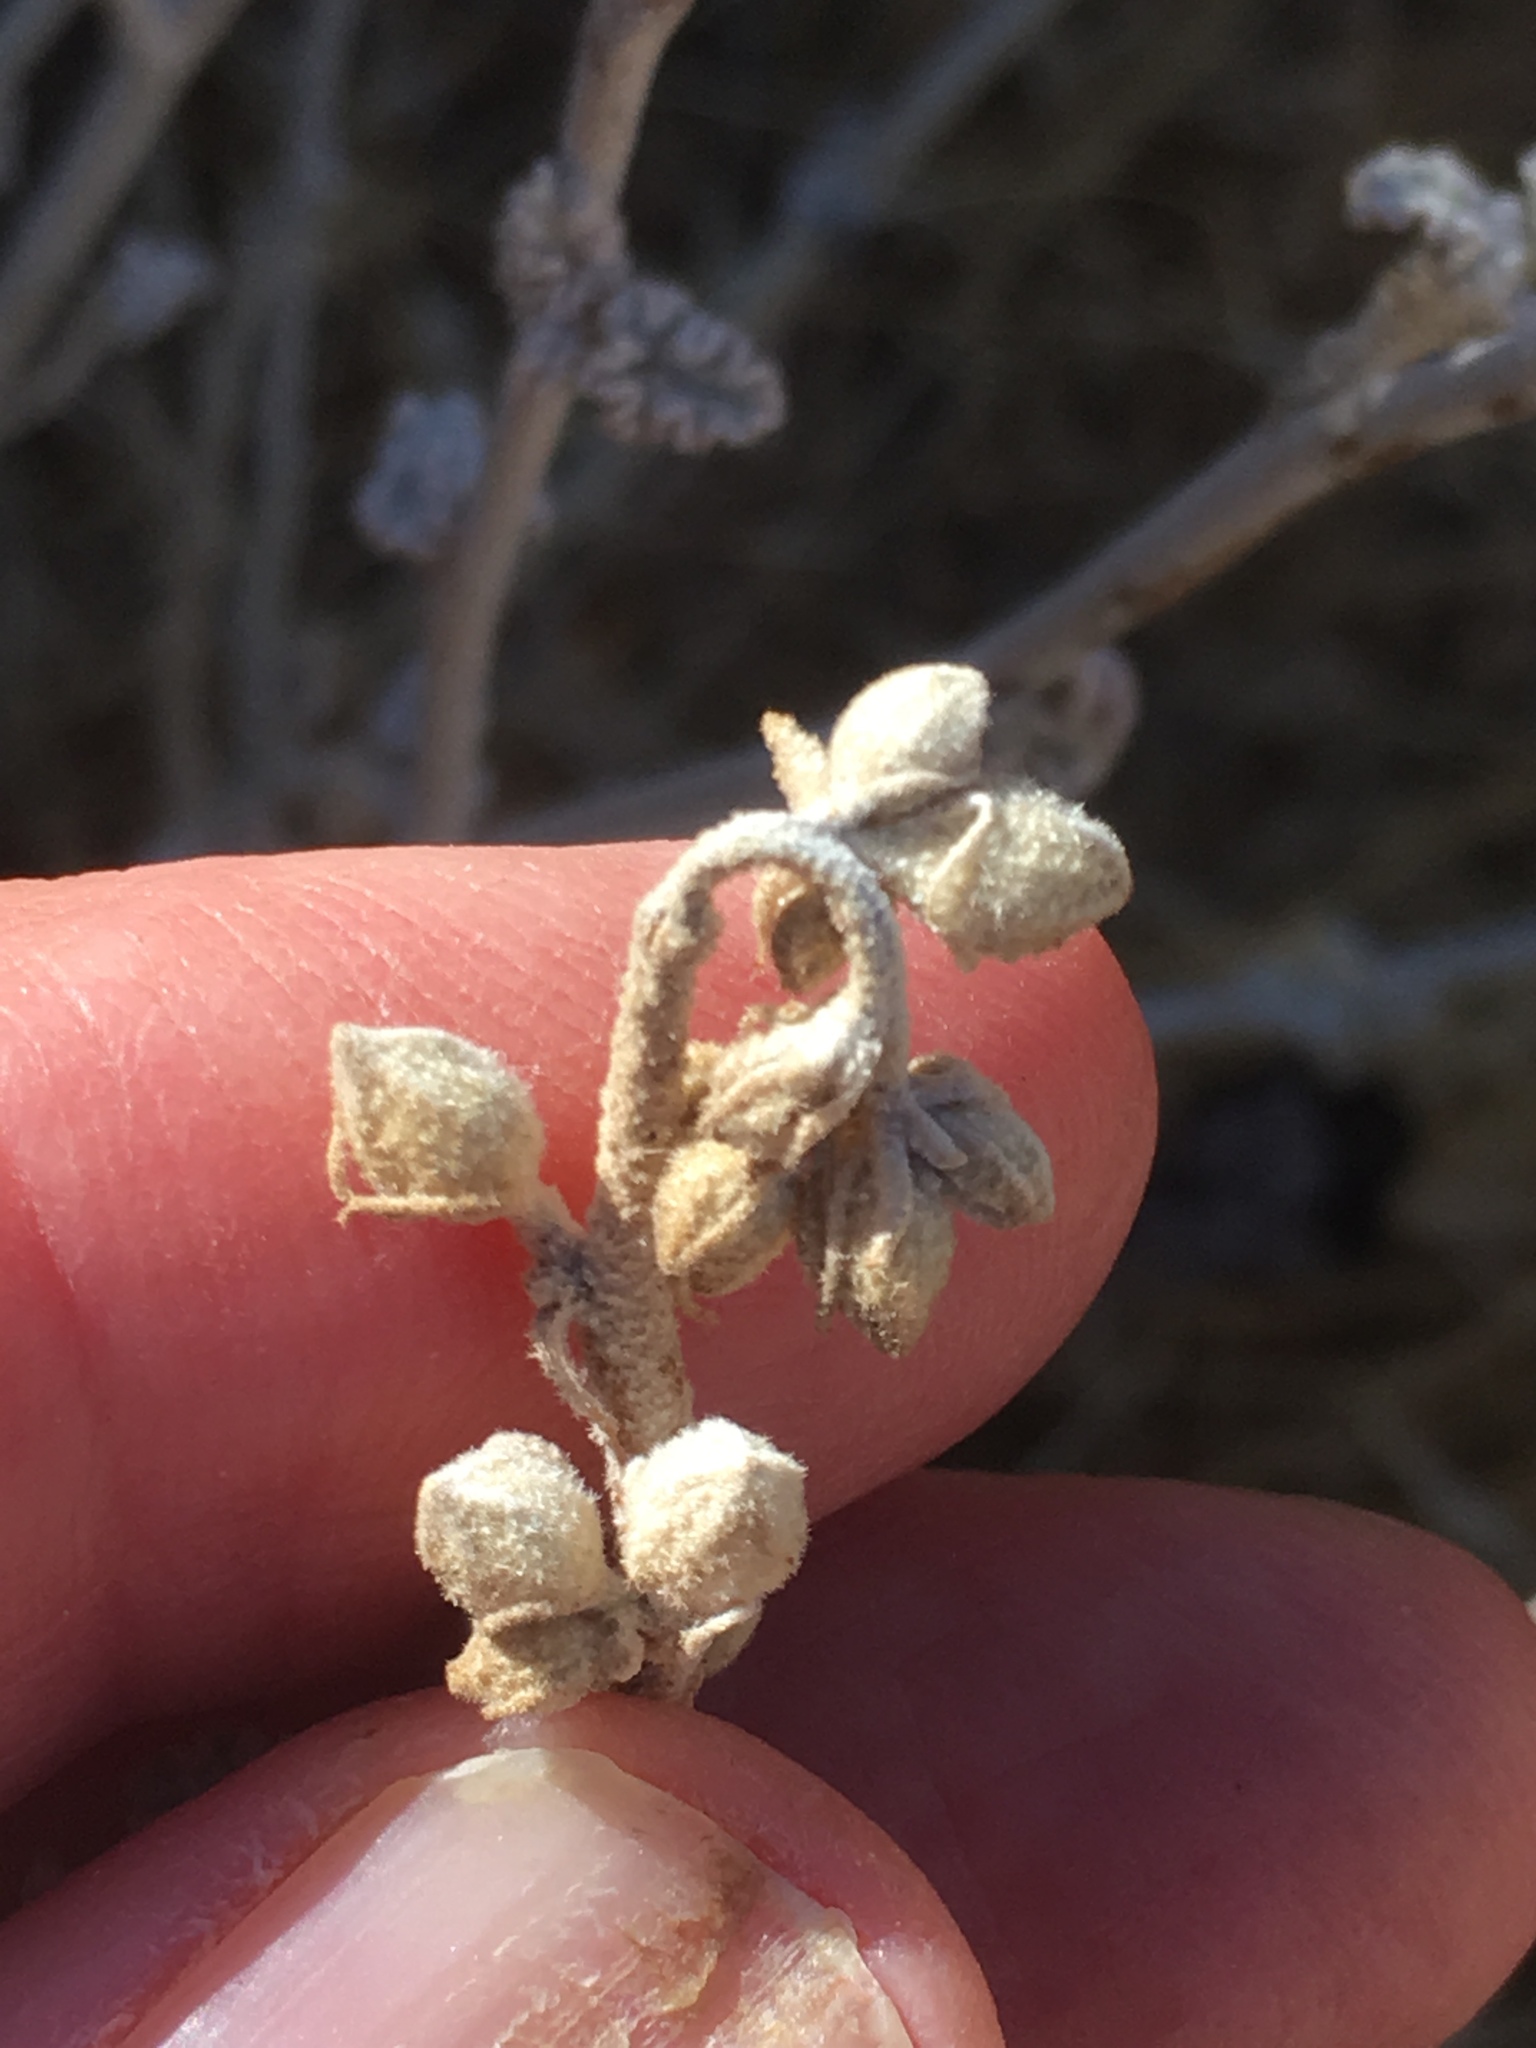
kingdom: Plantae
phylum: Tracheophyta
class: Magnoliopsida
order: Malvales
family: Malvaceae
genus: Sphaeralcea
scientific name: Sphaeralcea ambigua
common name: Apricot globe-mallow
